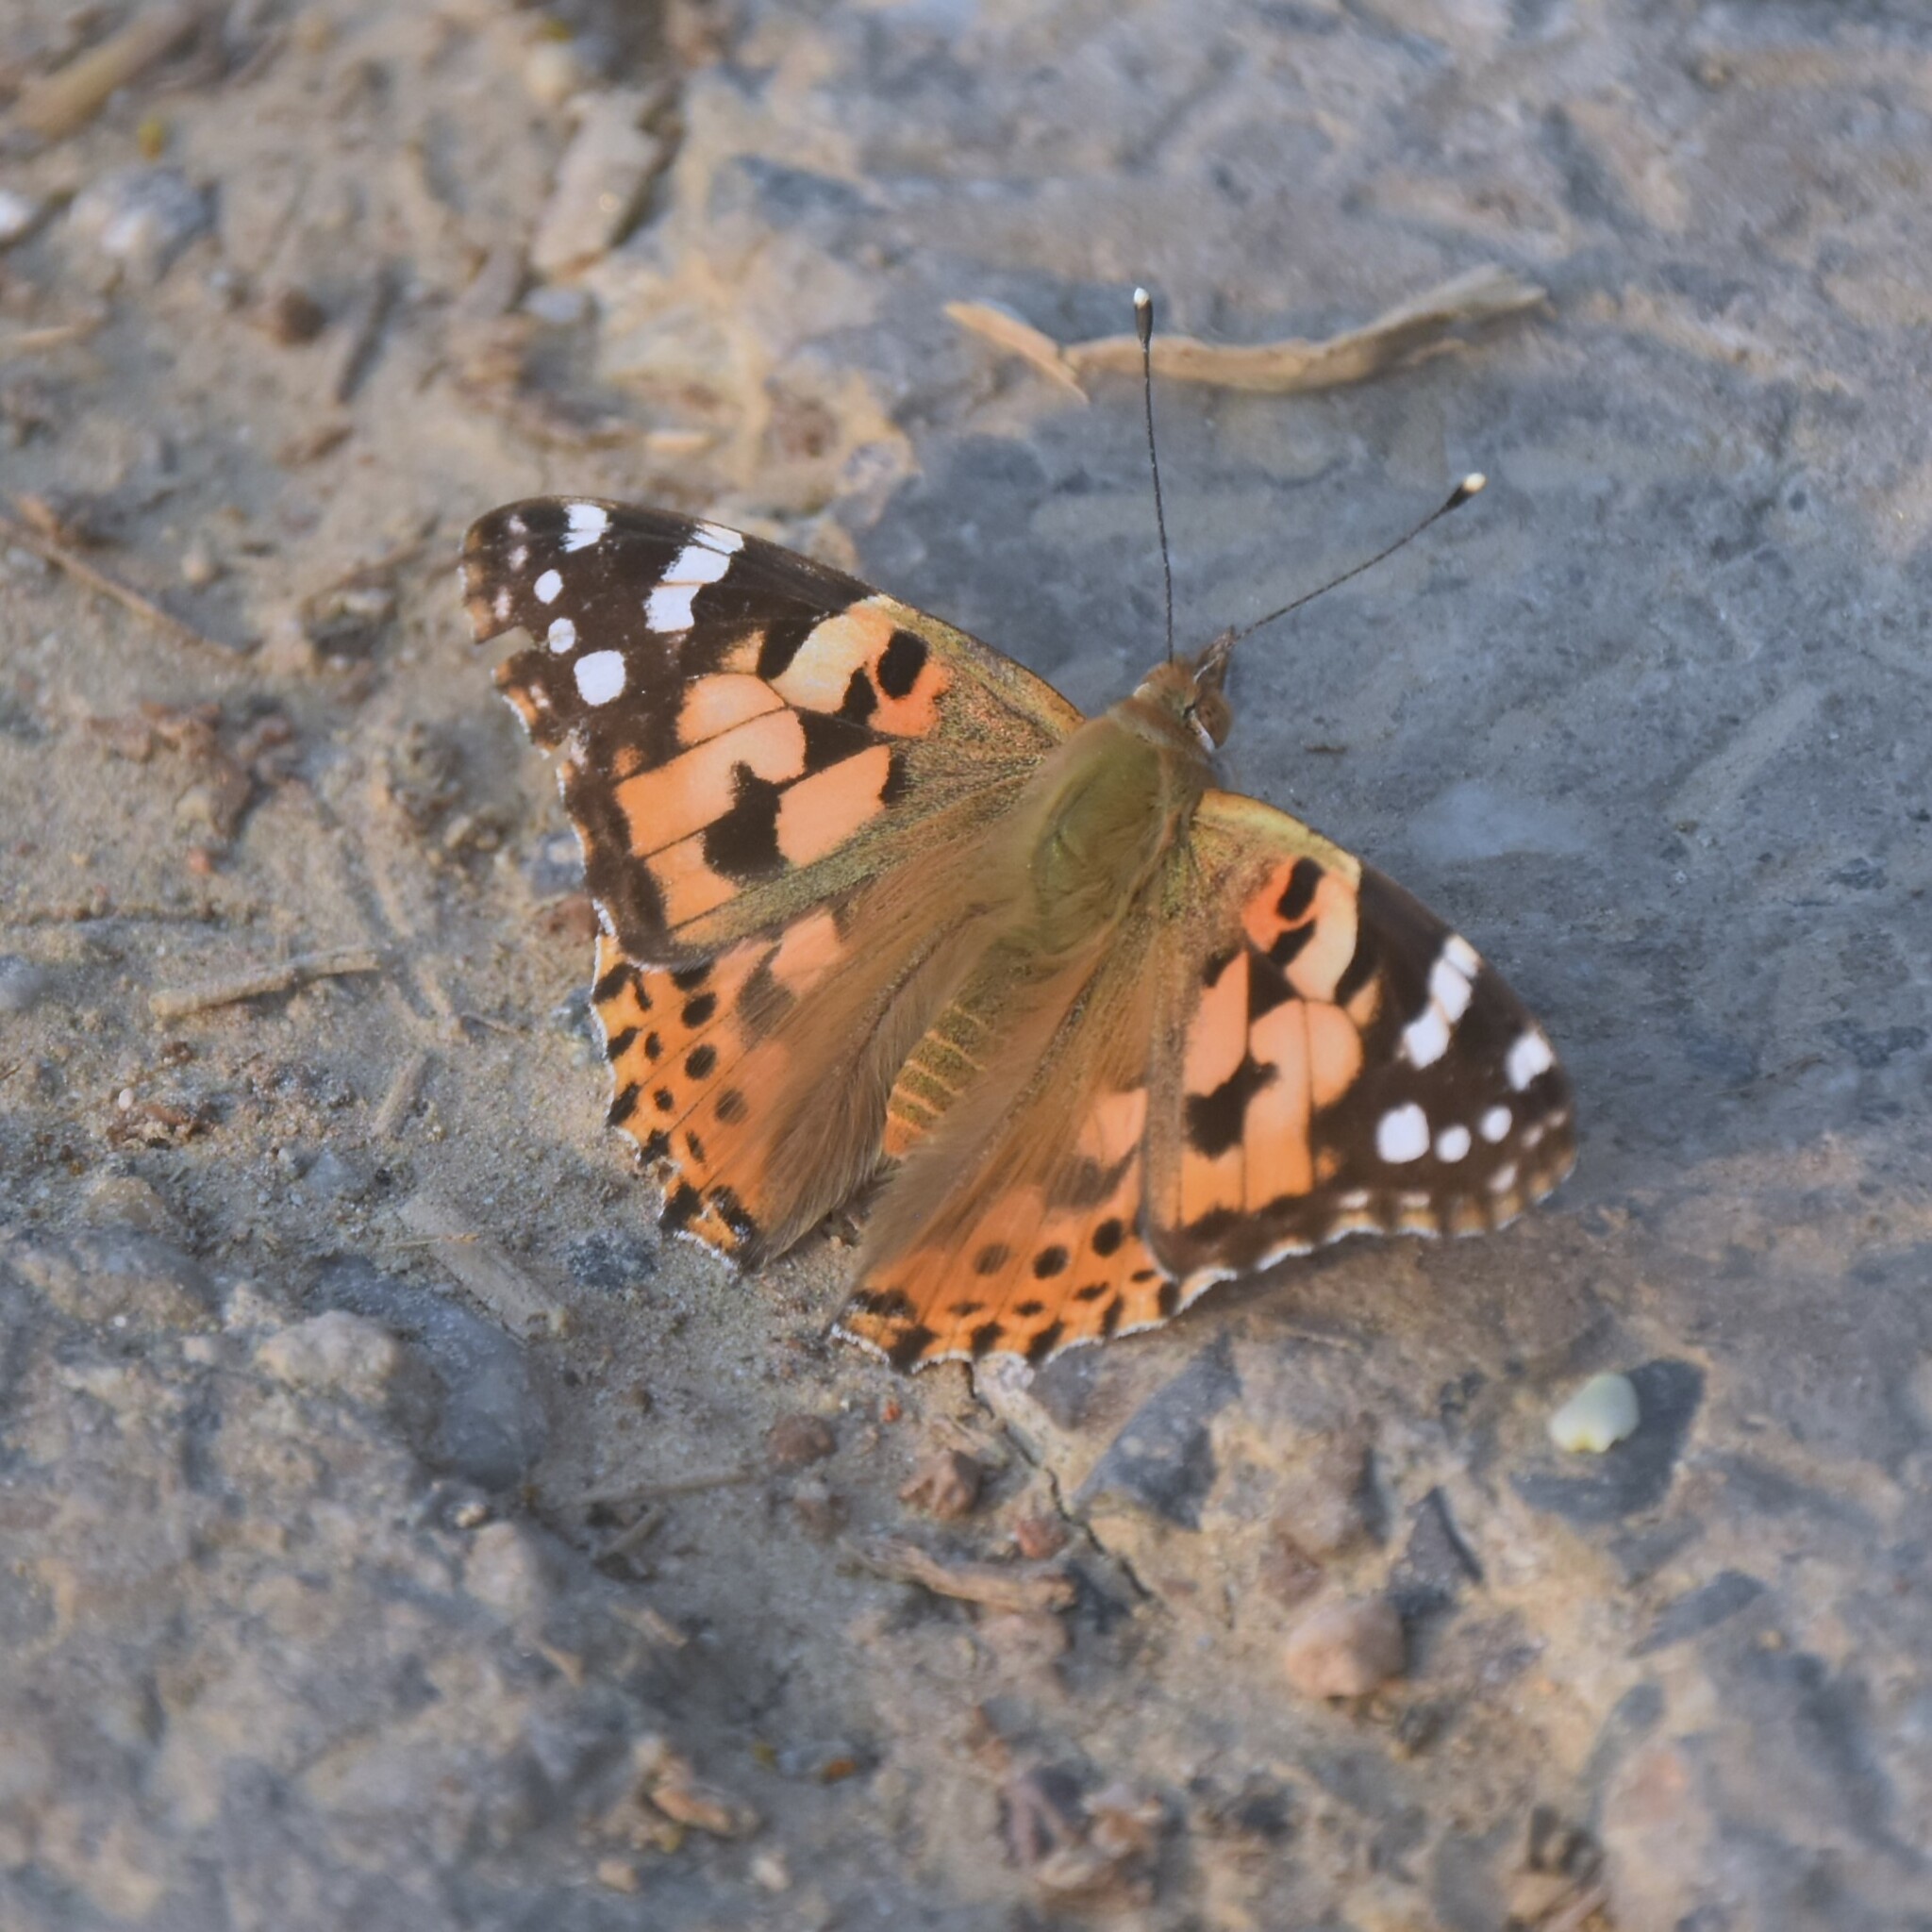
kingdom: Animalia
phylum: Arthropoda
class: Insecta
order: Lepidoptera
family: Nymphalidae
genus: Vanessa
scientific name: Vanessa cardui
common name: Painted lady
